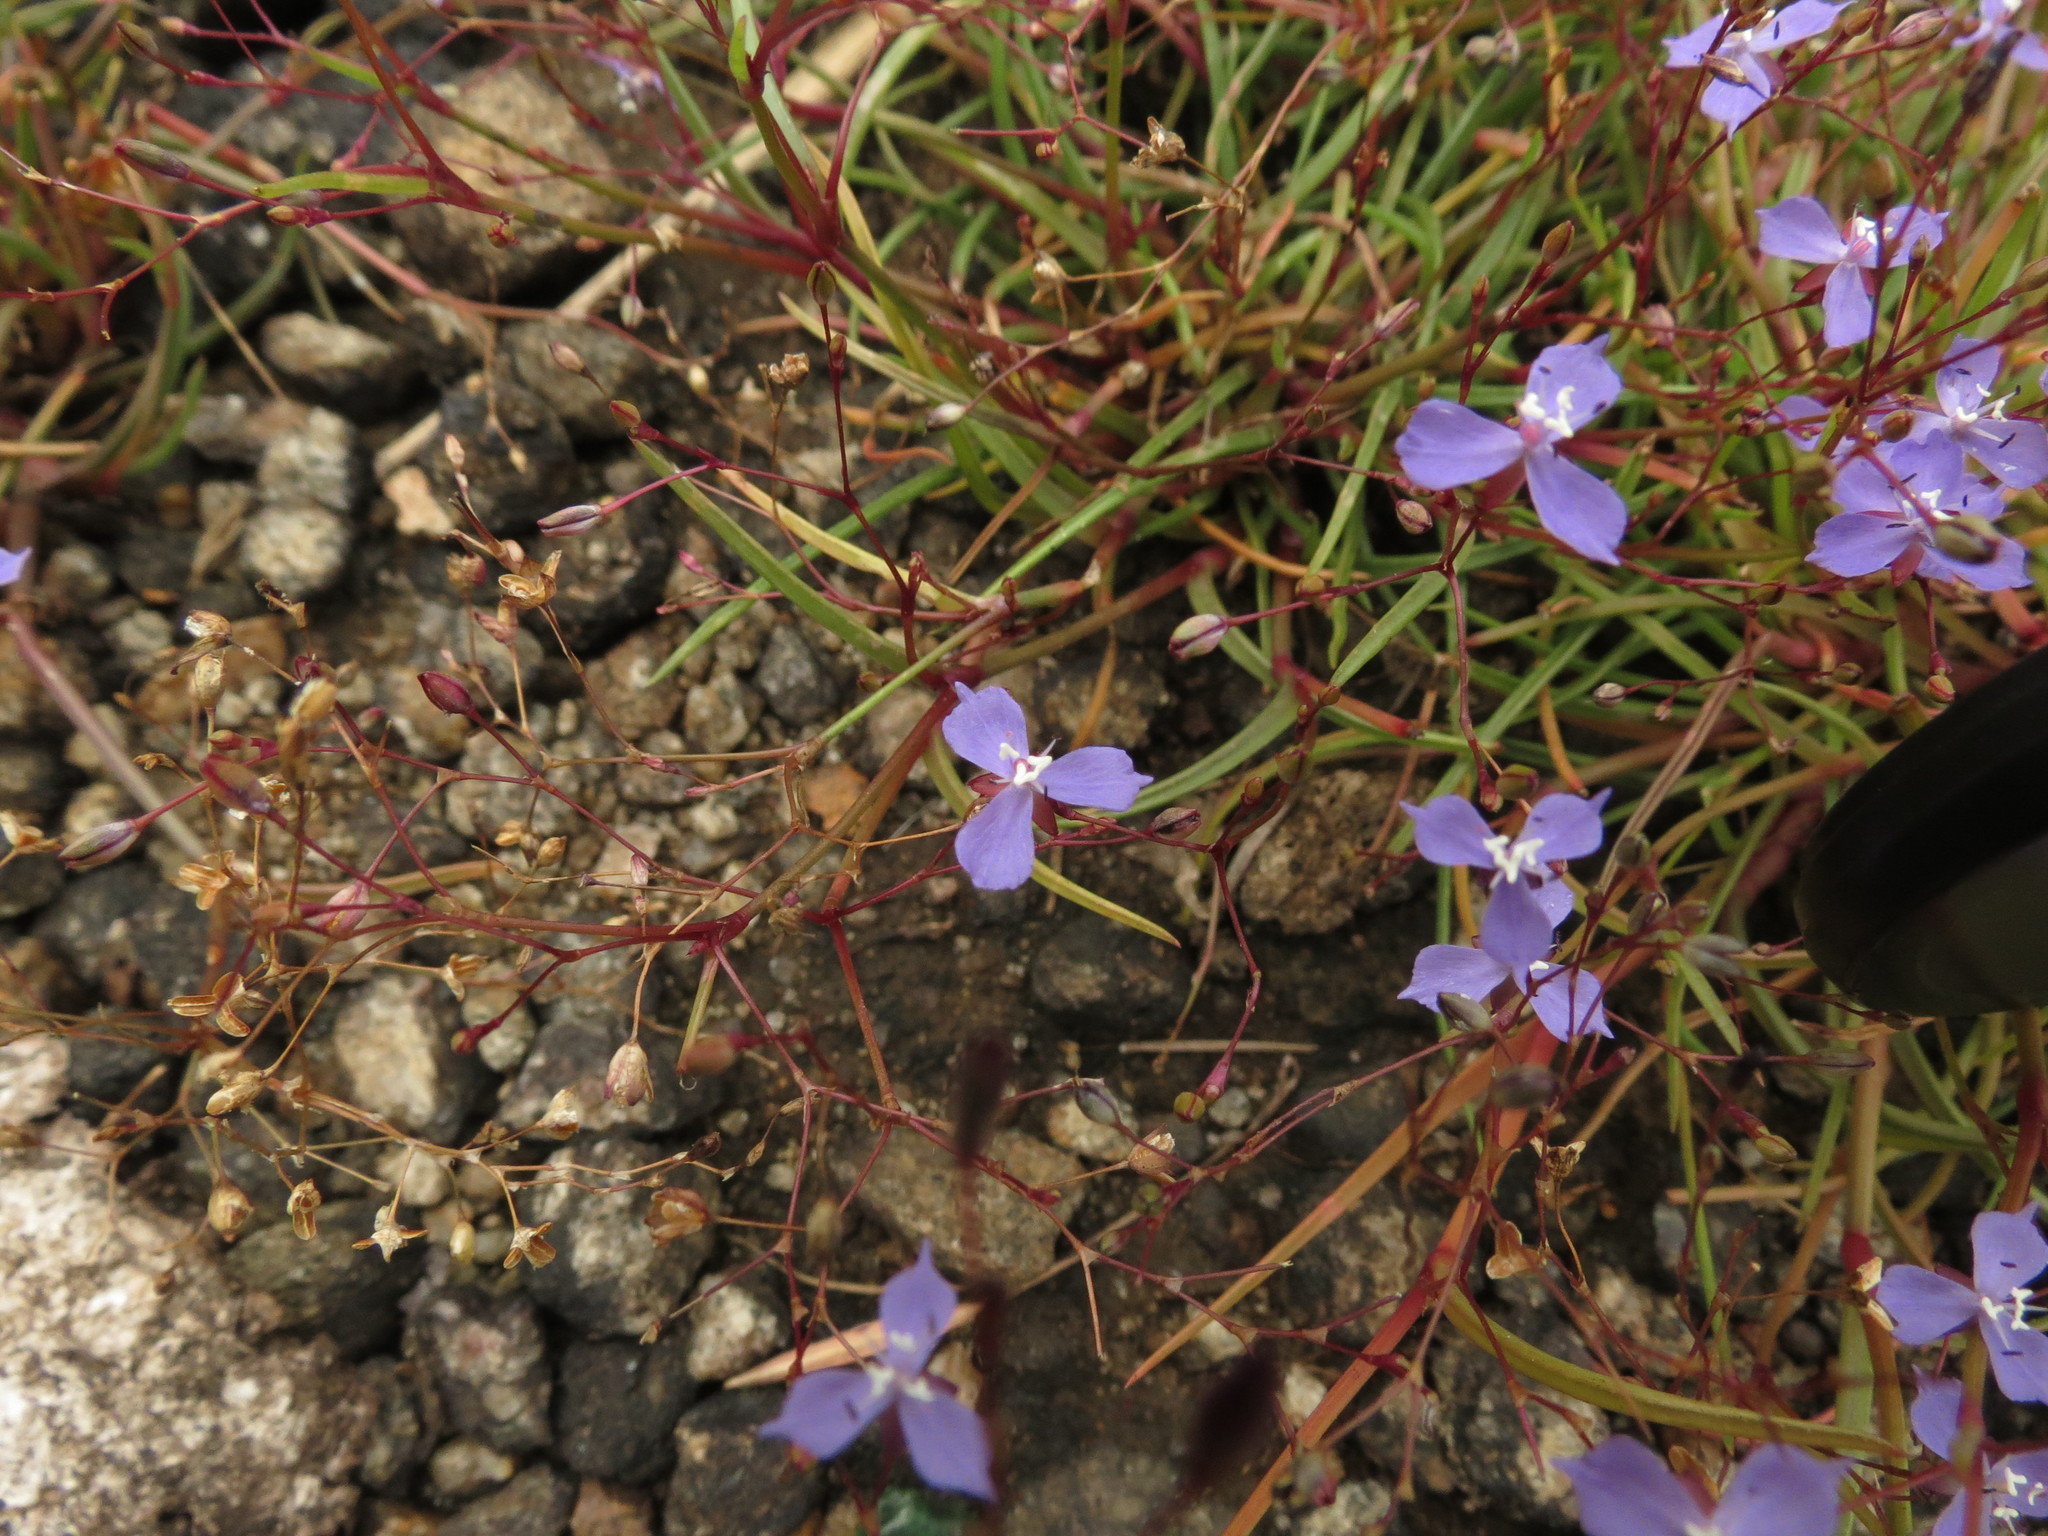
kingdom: Plantae
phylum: Tracheophyta
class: Liliopsida
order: Commelinales
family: Commelinaceae
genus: Murdannia
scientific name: Murdannia semiteres
